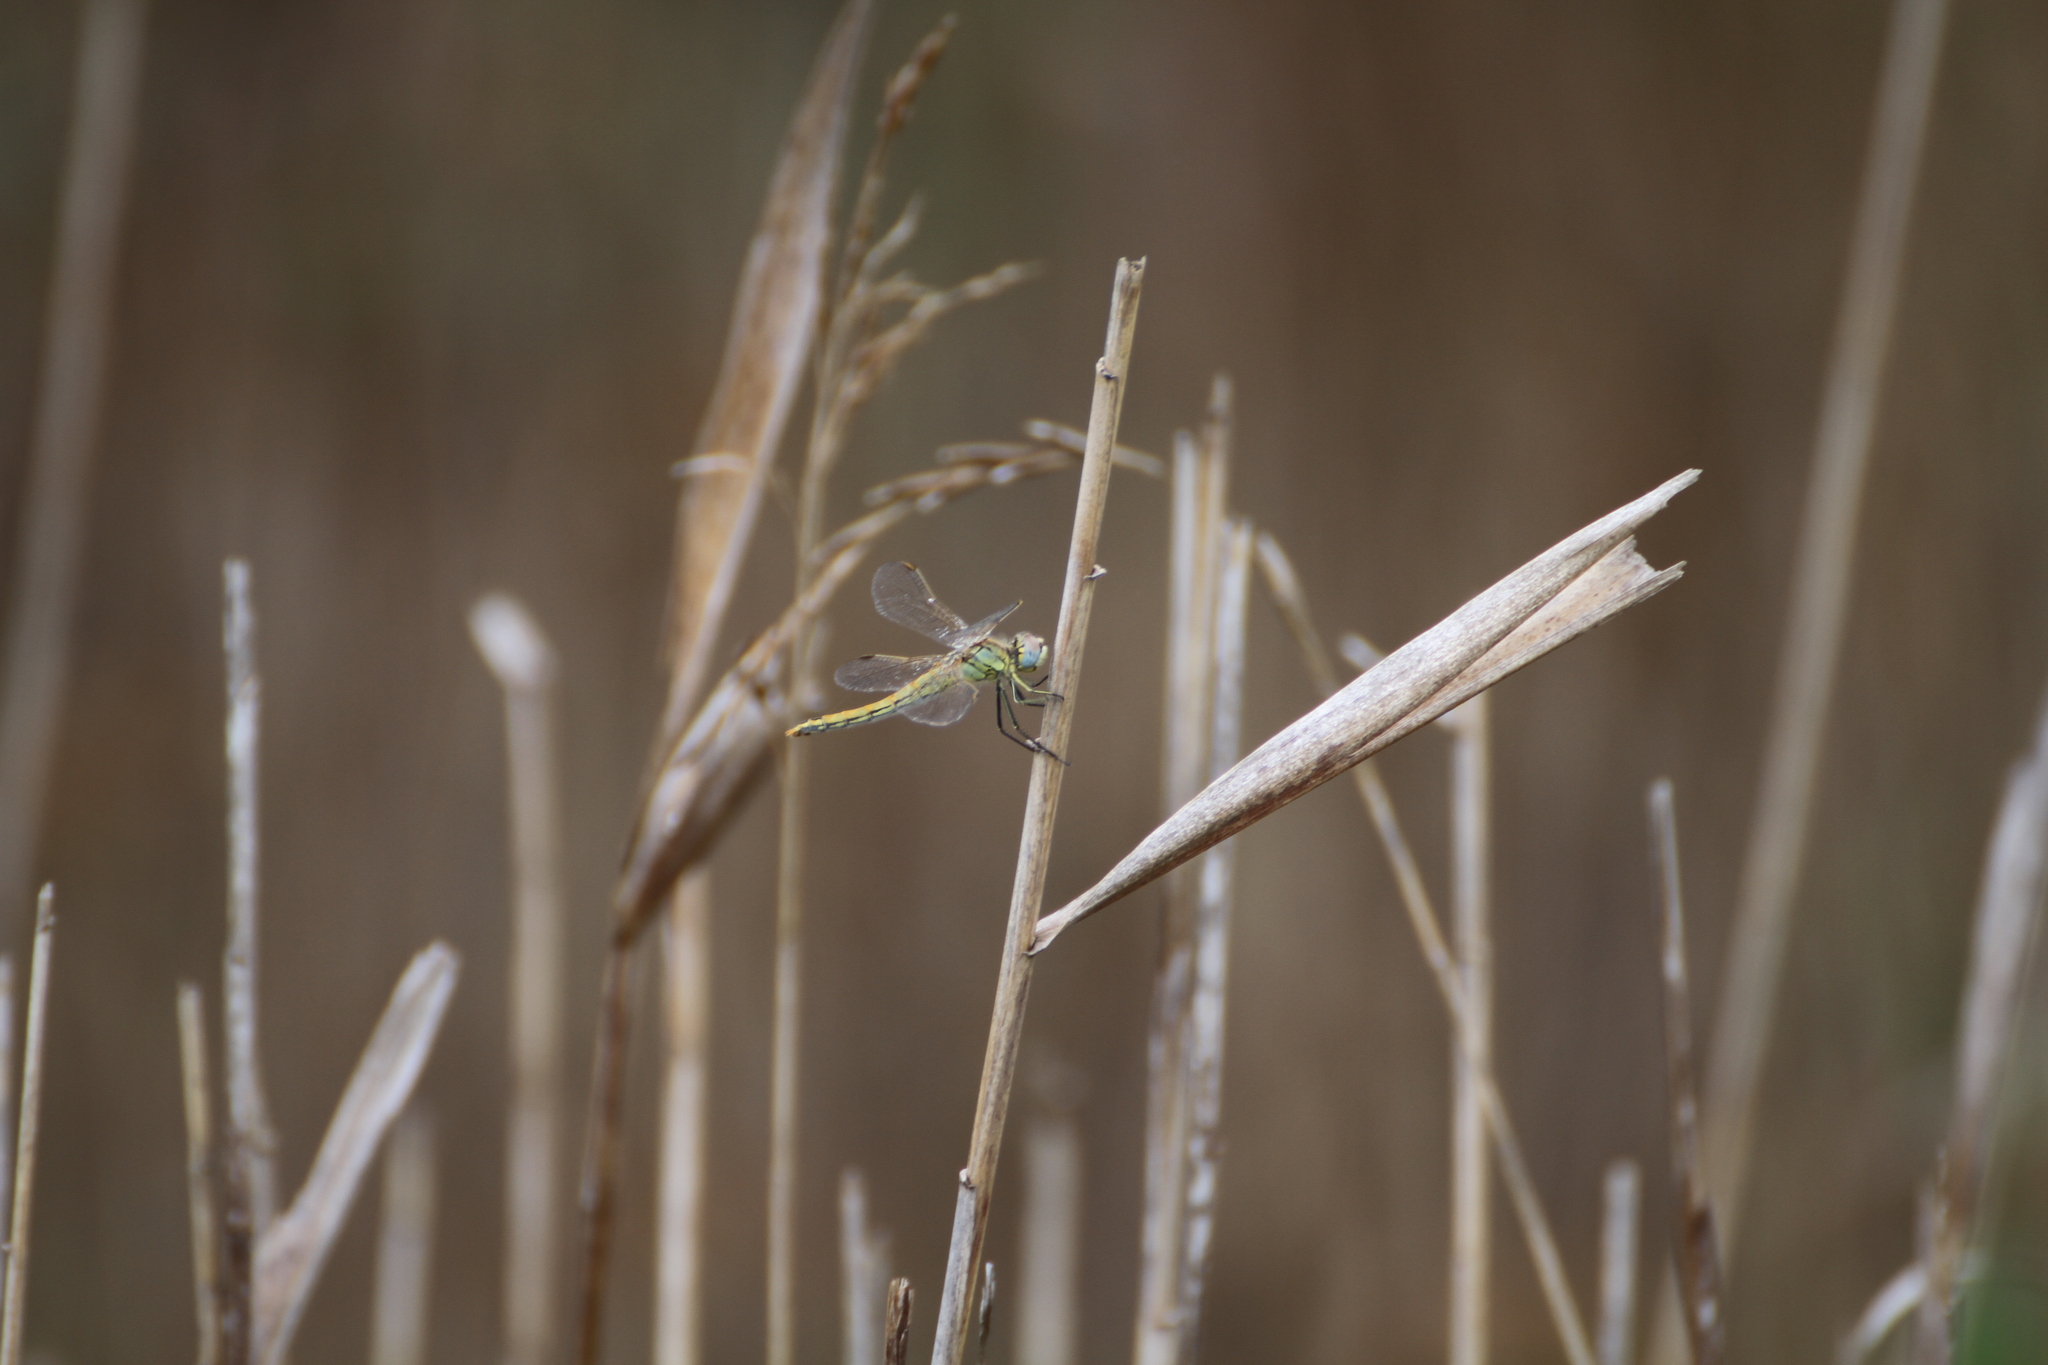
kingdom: Animalia
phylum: Arthropoda
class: Insecta
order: Odonata
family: Libellulidae
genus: Sympetrum
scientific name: Sympetrum fonscolombii
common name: Red-veined darter
